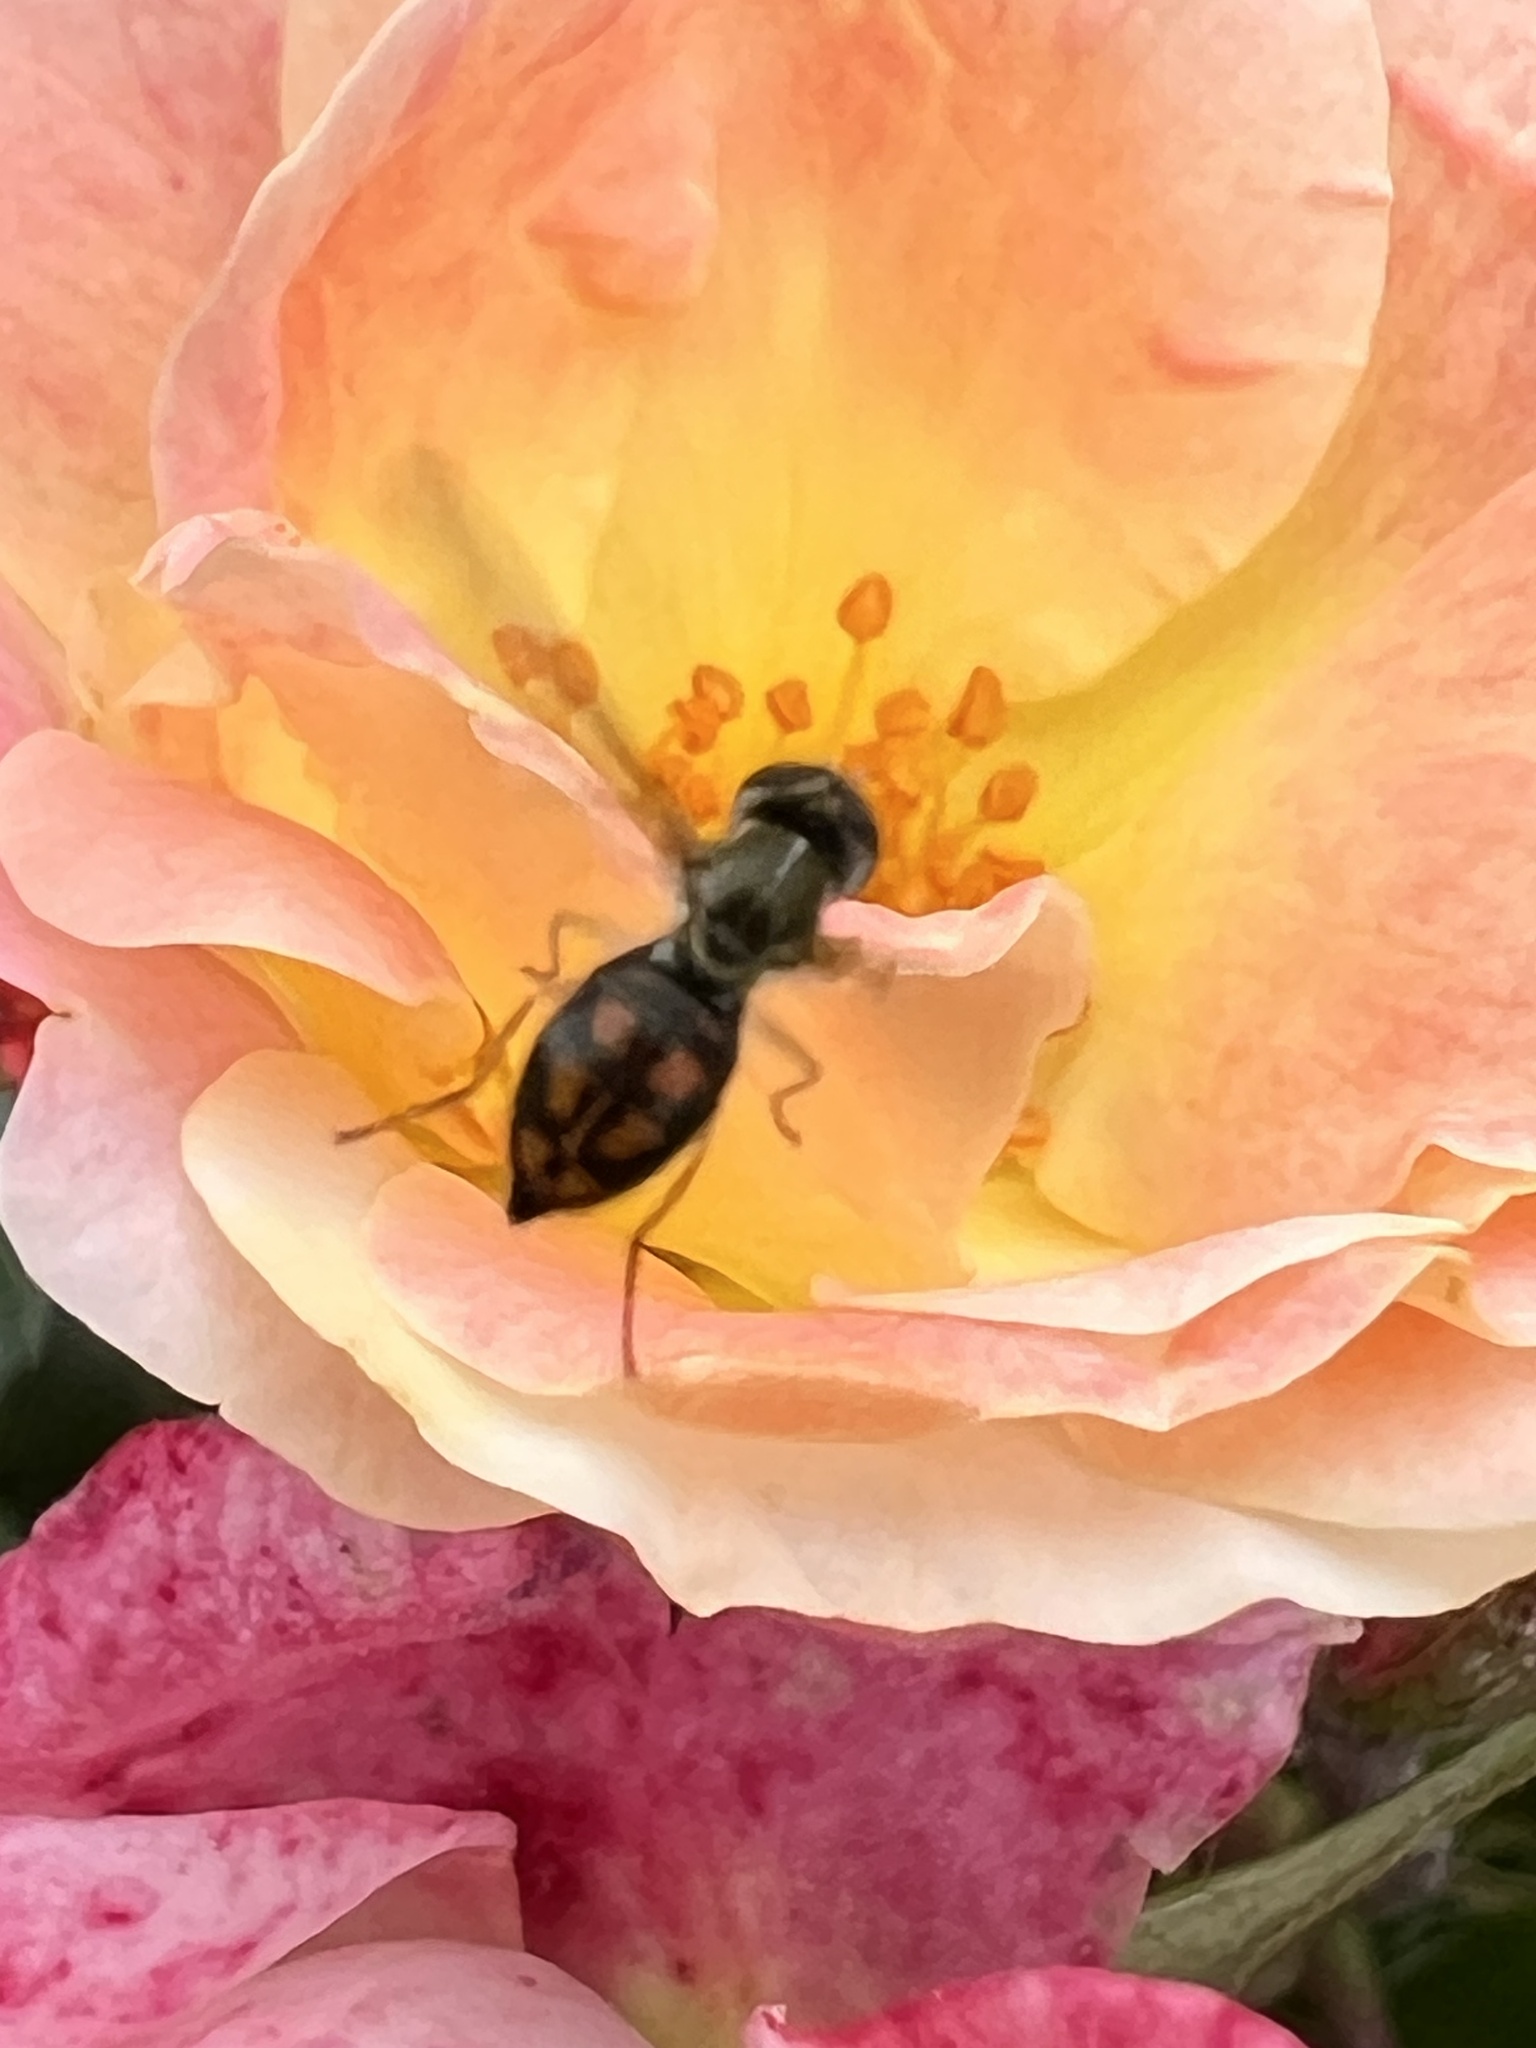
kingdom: Animalia
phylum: Arthropoda
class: Insecta
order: Diptera
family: Syrphidae
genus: Toxomerus
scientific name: Toxomerus marginatus
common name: Syrphid fly
